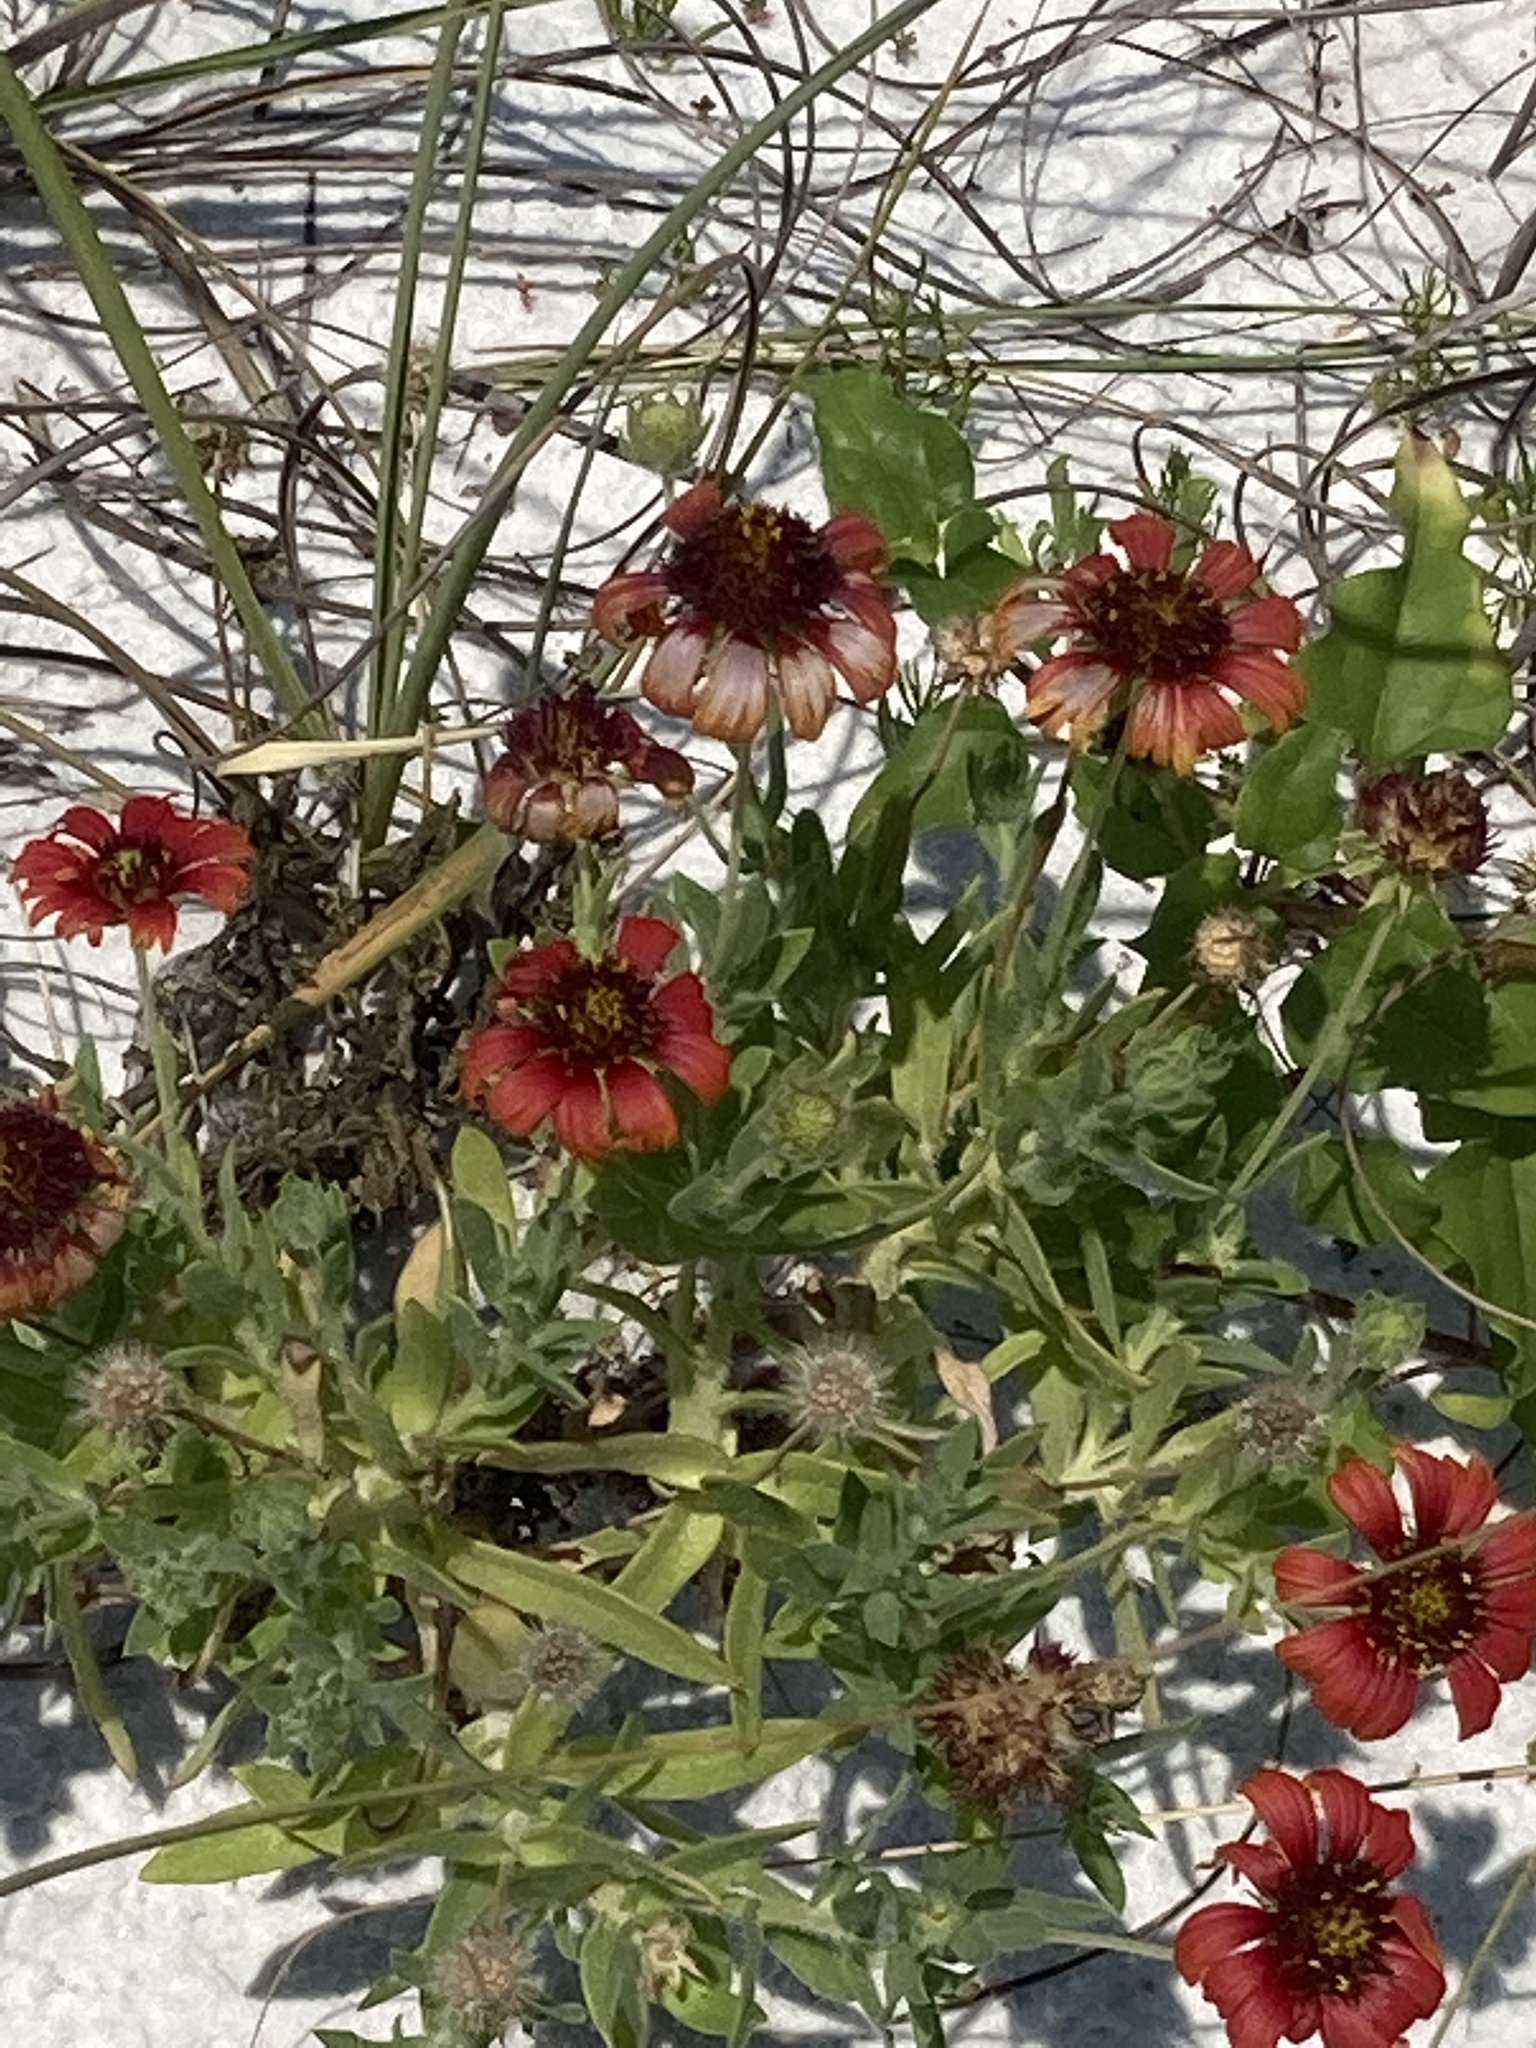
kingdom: Plantae
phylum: Tracheophyta
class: Magnoliopsida
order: Asterales
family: Asteraceae
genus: Gaillardia
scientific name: Gaillardia pulchella
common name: Firewheel
